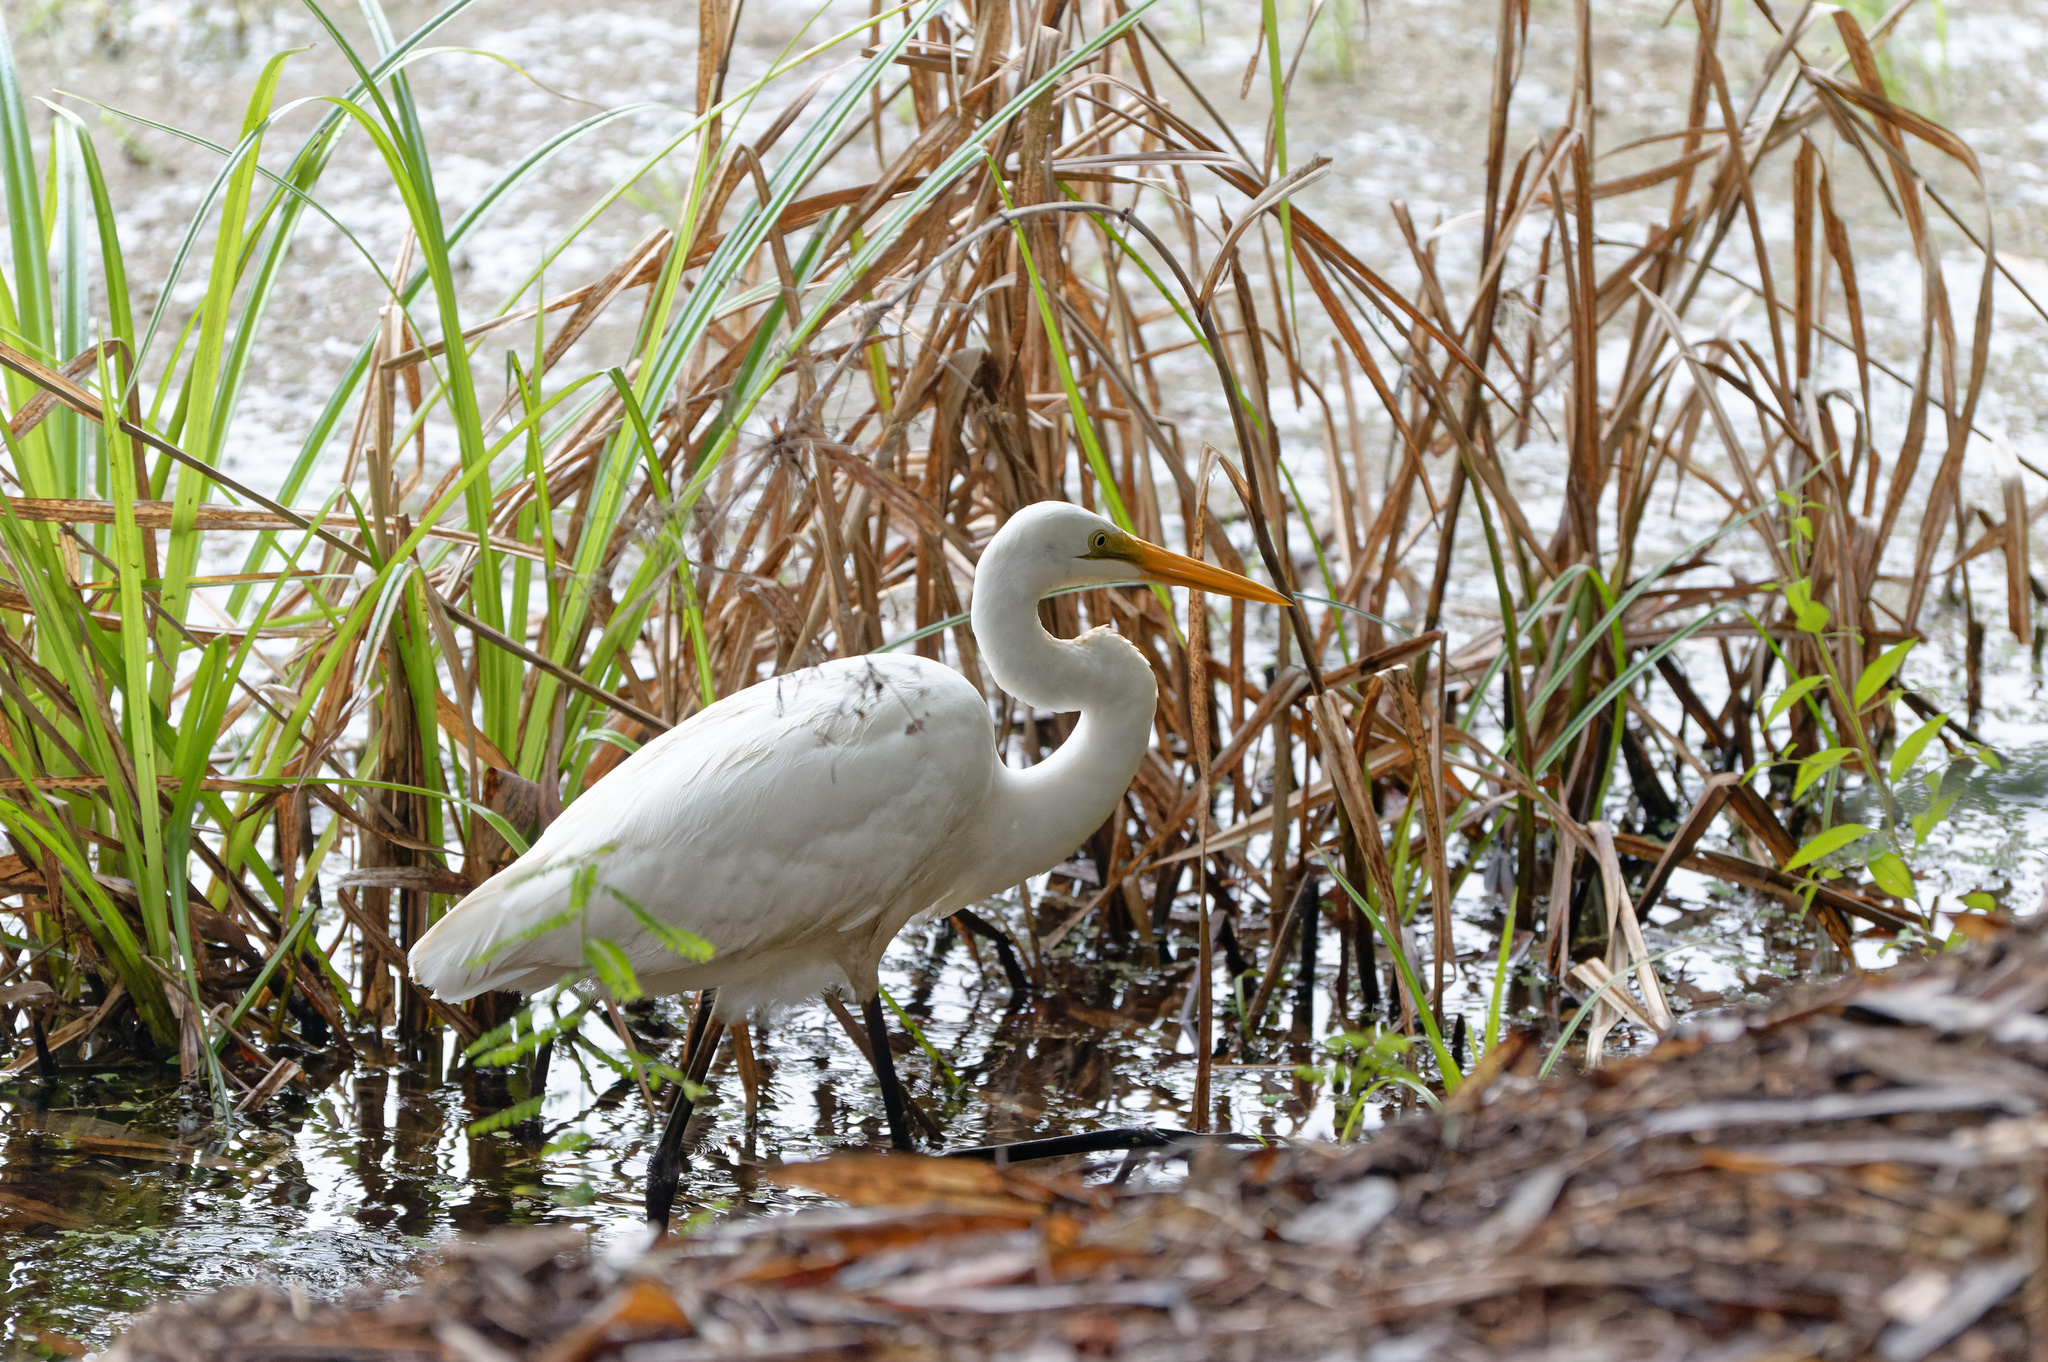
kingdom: Animalia
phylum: Chordata
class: Aves
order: Pelecaniformes
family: Ardeidae
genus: Ardea
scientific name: Ardea alba
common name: Great egret
